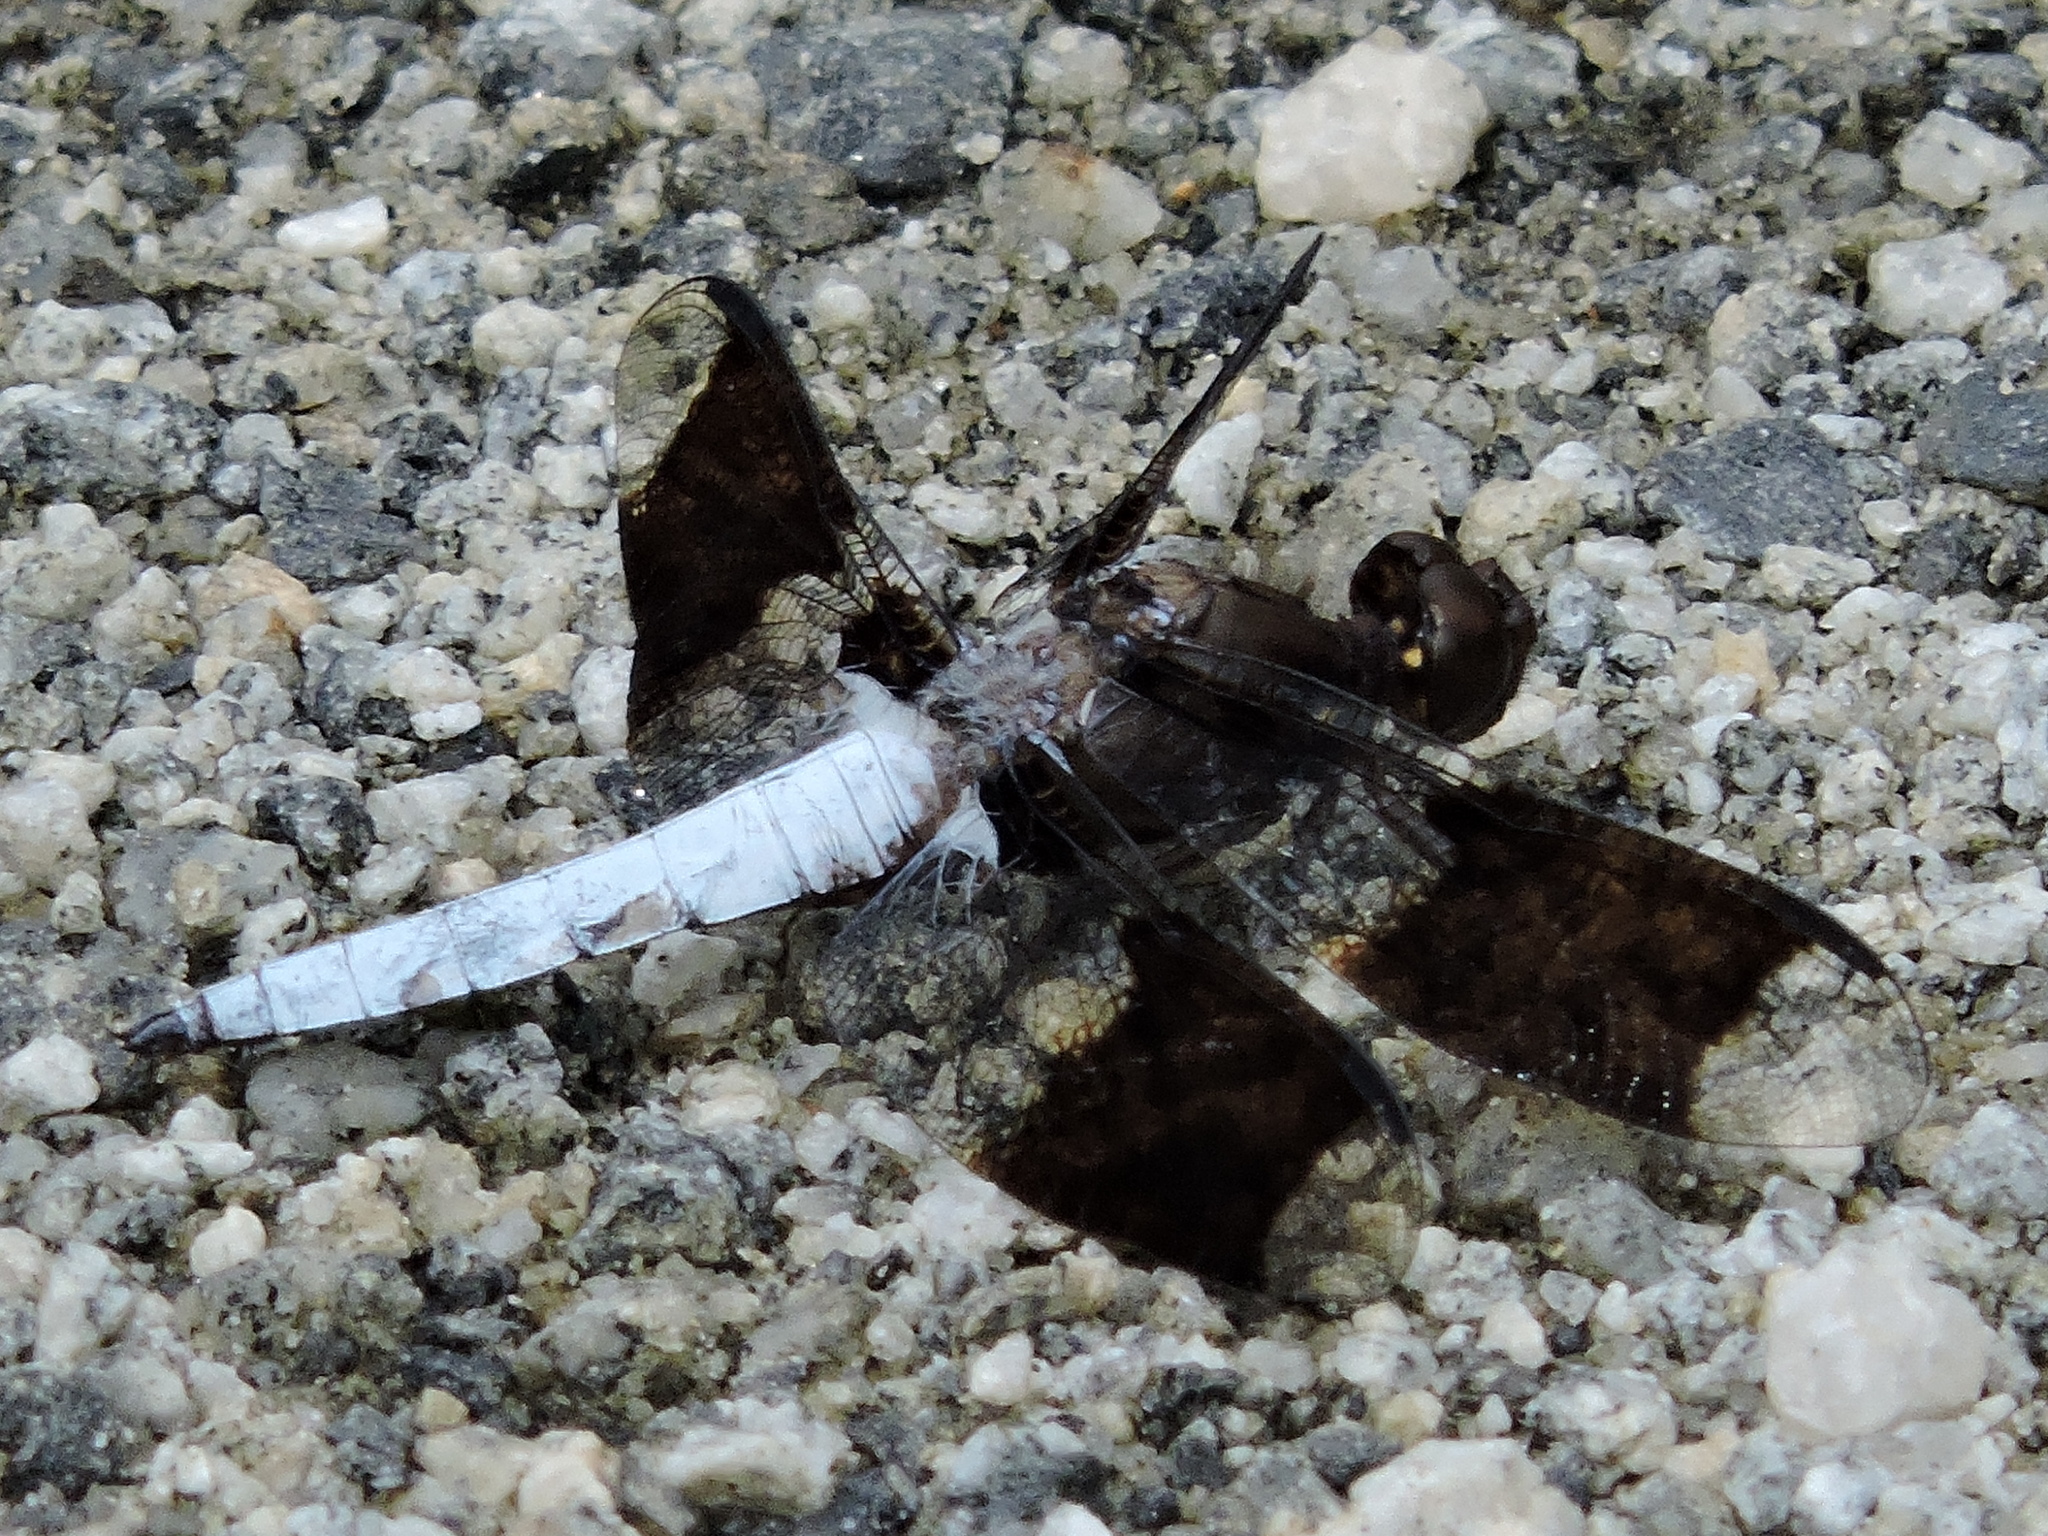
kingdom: Animalia
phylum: Arthropoda
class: Insecta
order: Odonata
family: Libellulidae
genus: Plathemis
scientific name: Plathemis lydia
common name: Common whitetail
